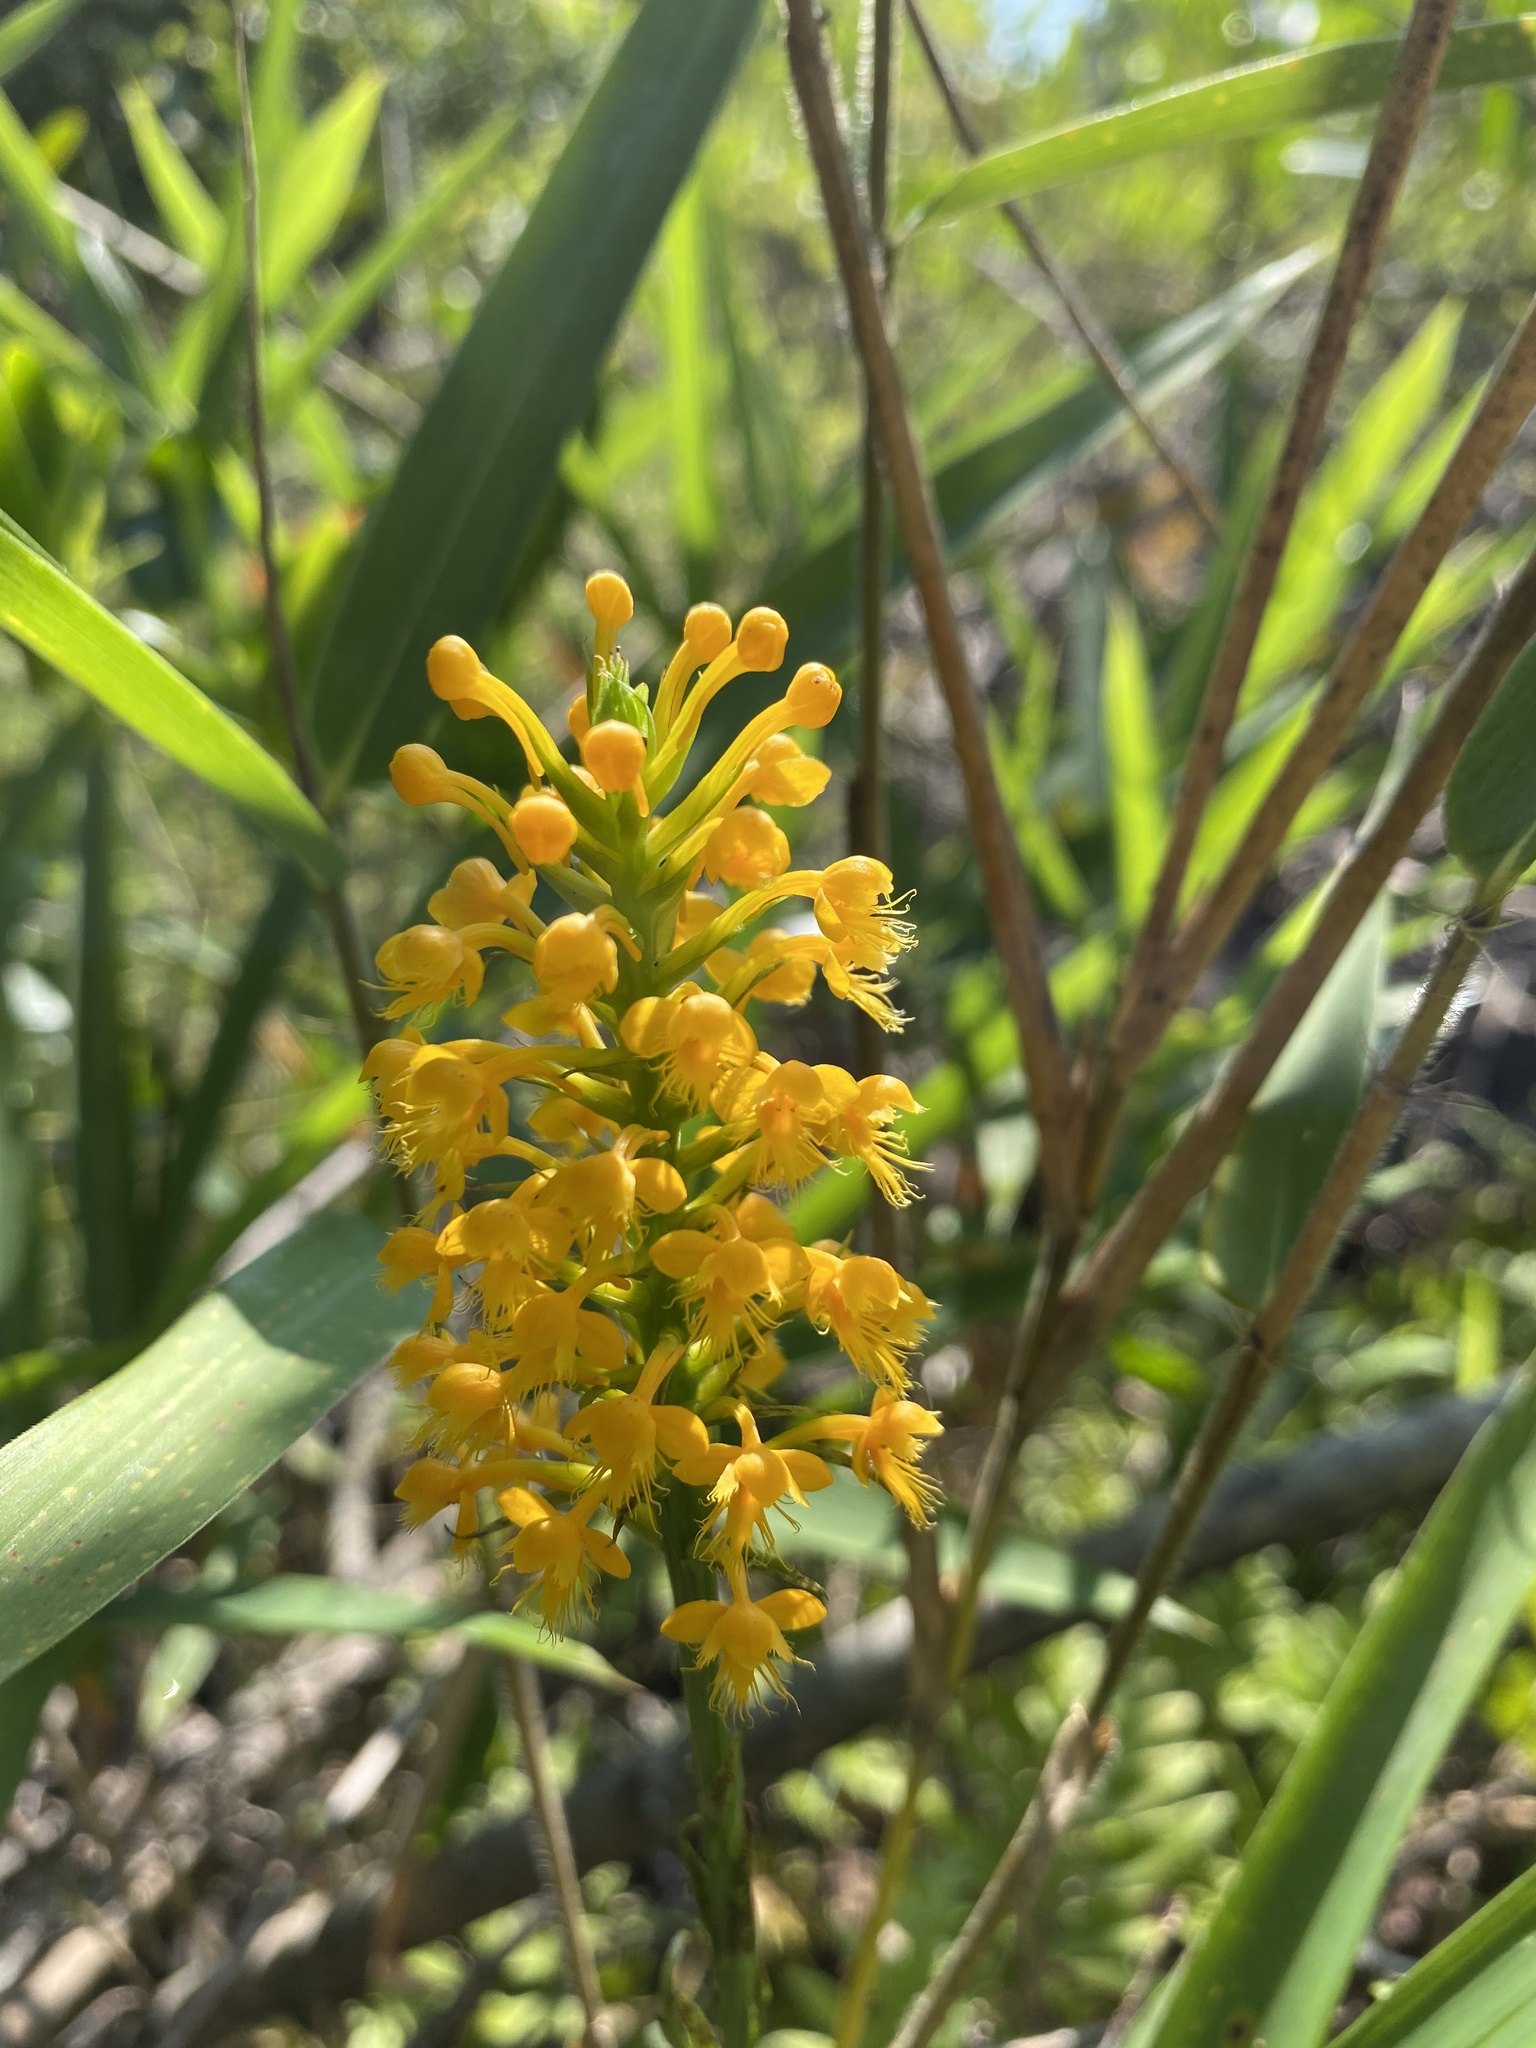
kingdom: Plantae
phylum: Tracheophyta
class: Liliopsida
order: Asparagales
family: Orchidaceae
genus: Platanthera
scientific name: Platanthera cristata
